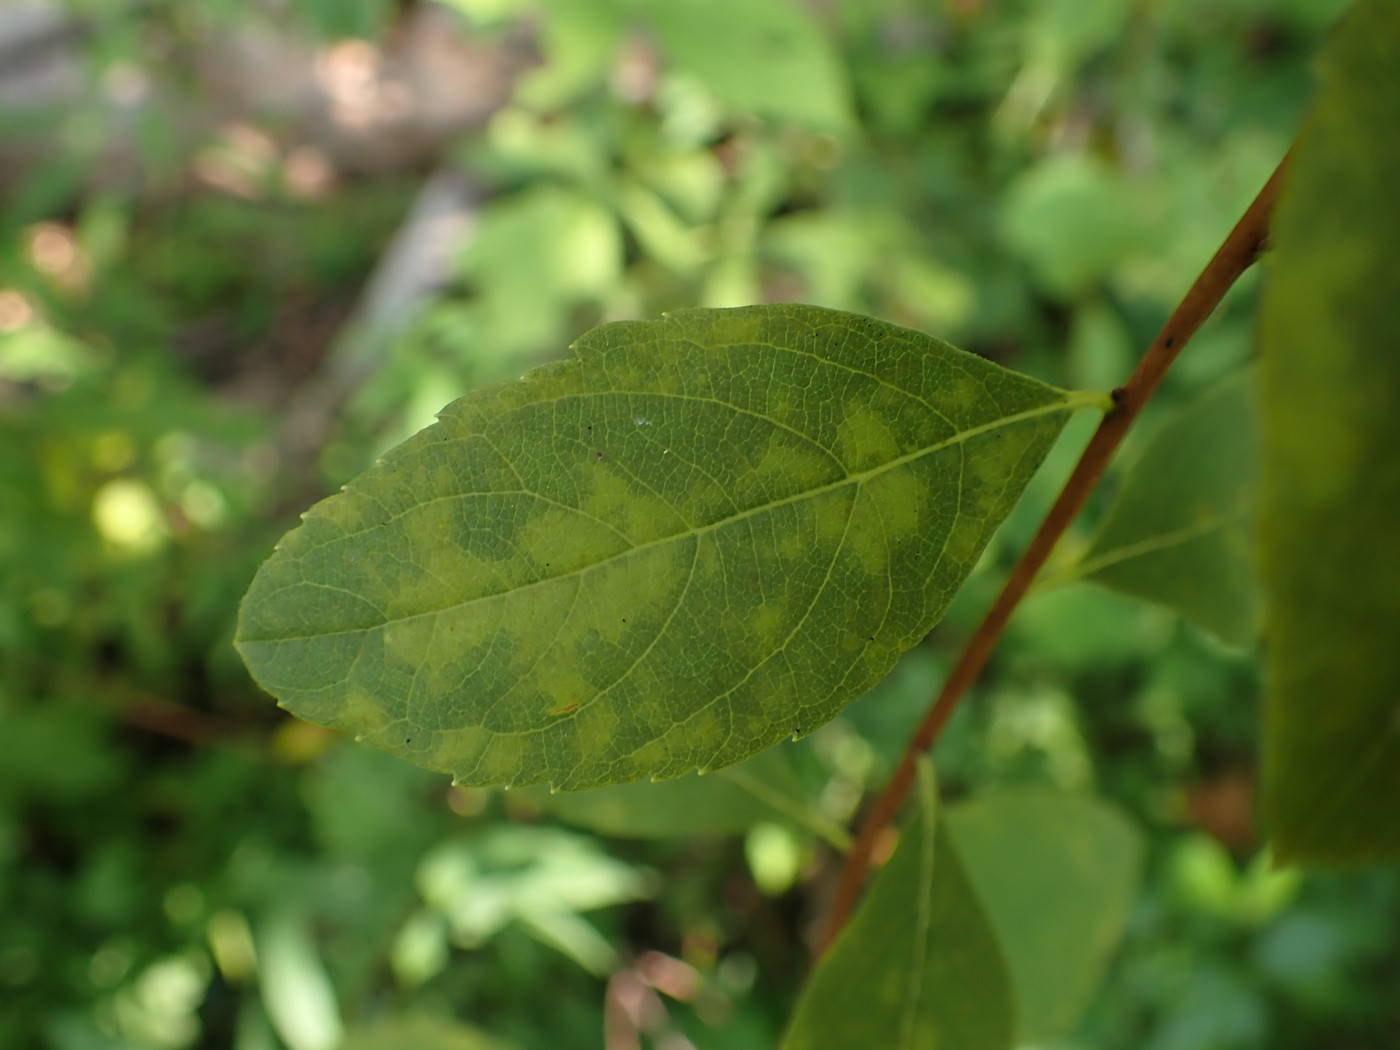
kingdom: Plantae
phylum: Tracheophyta
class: Magnoliopsida
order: Rosales
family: Rosaceae
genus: Spiraea
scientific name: Spiraea virginiana
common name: Virginia spiraea
